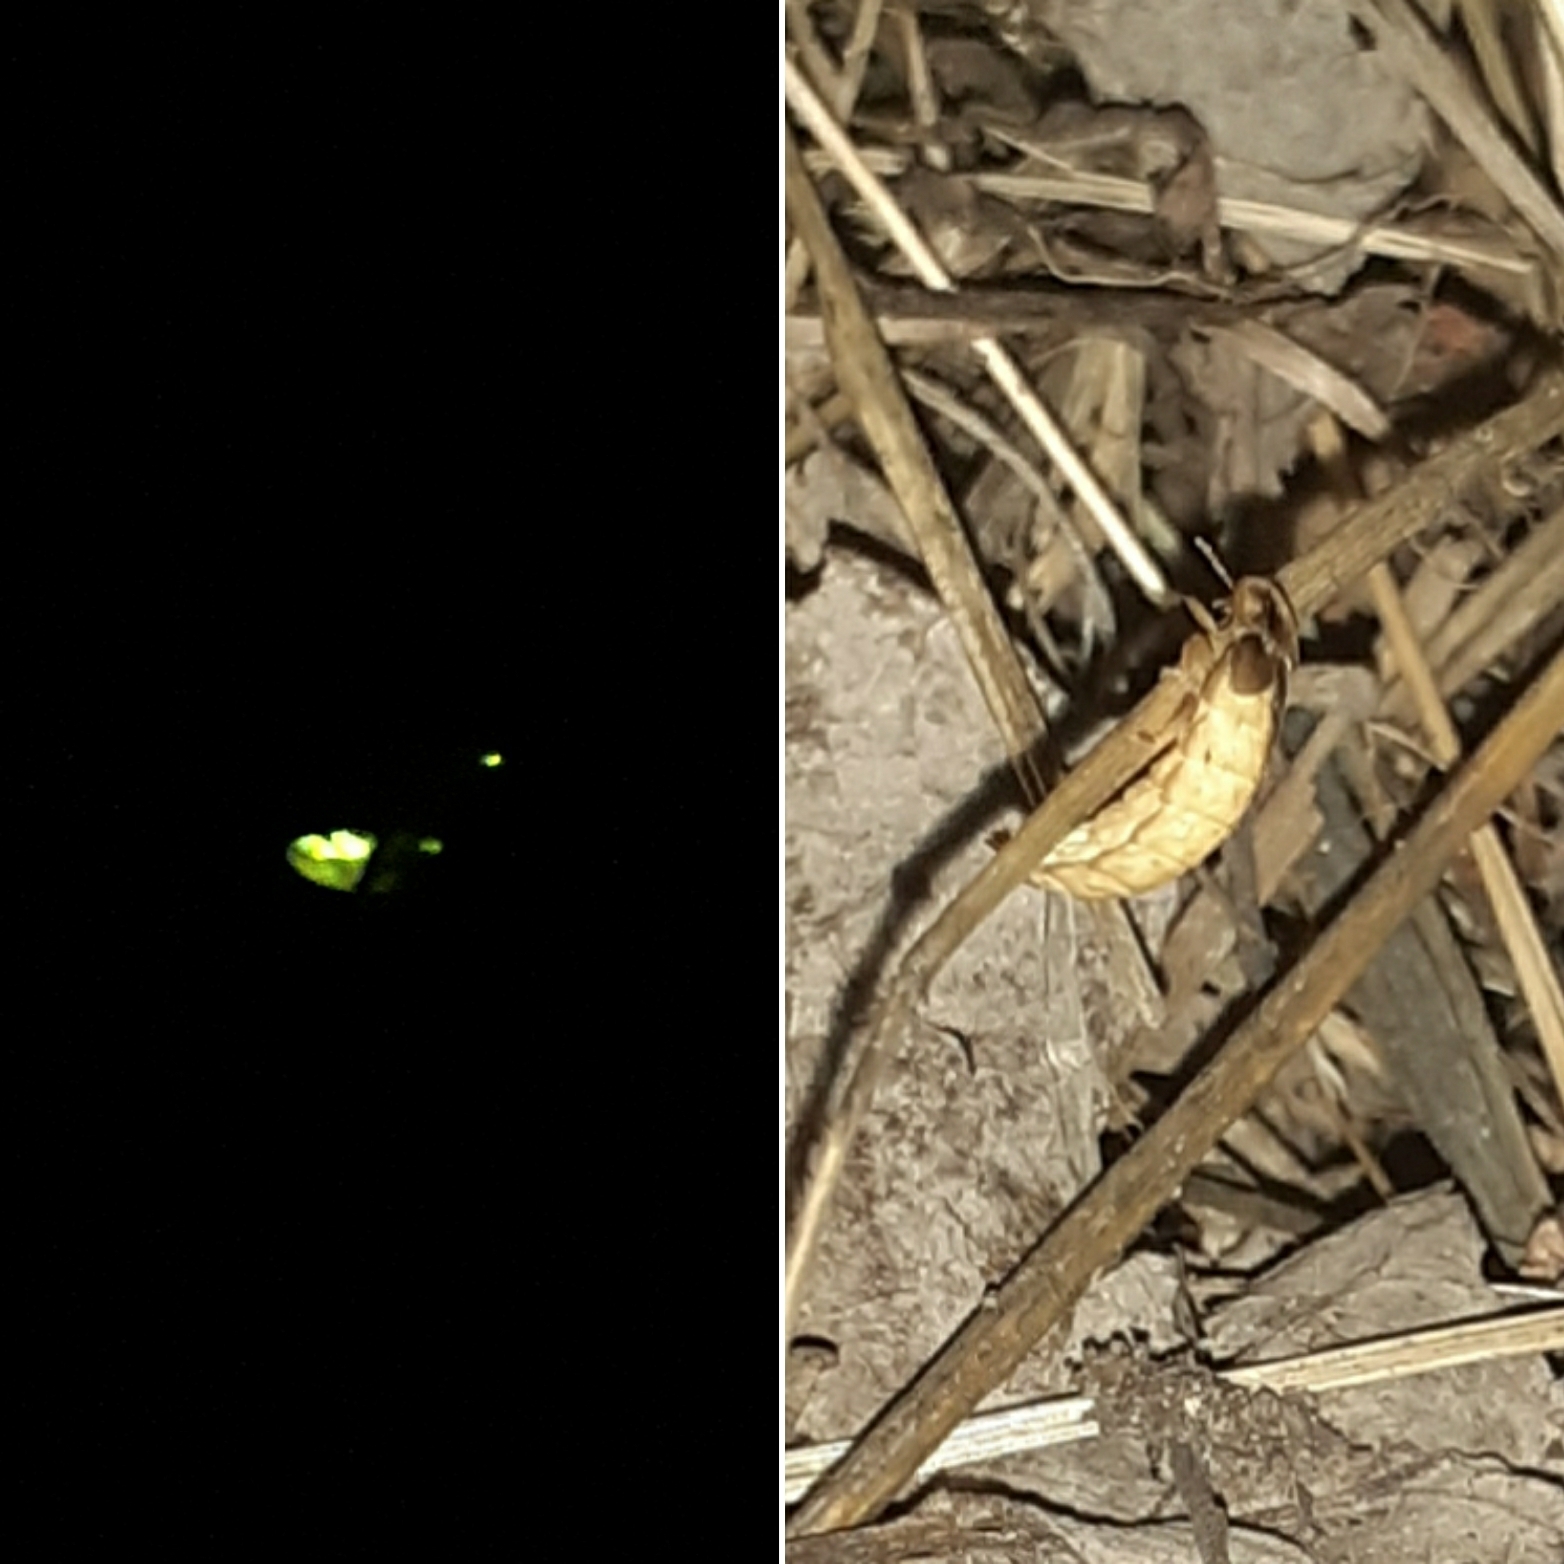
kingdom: Animalia
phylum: Arthropoda
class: Insecta
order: Coleoptera
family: Lampyridae
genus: Lamprohiza
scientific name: Lamprohiza mulsantii
